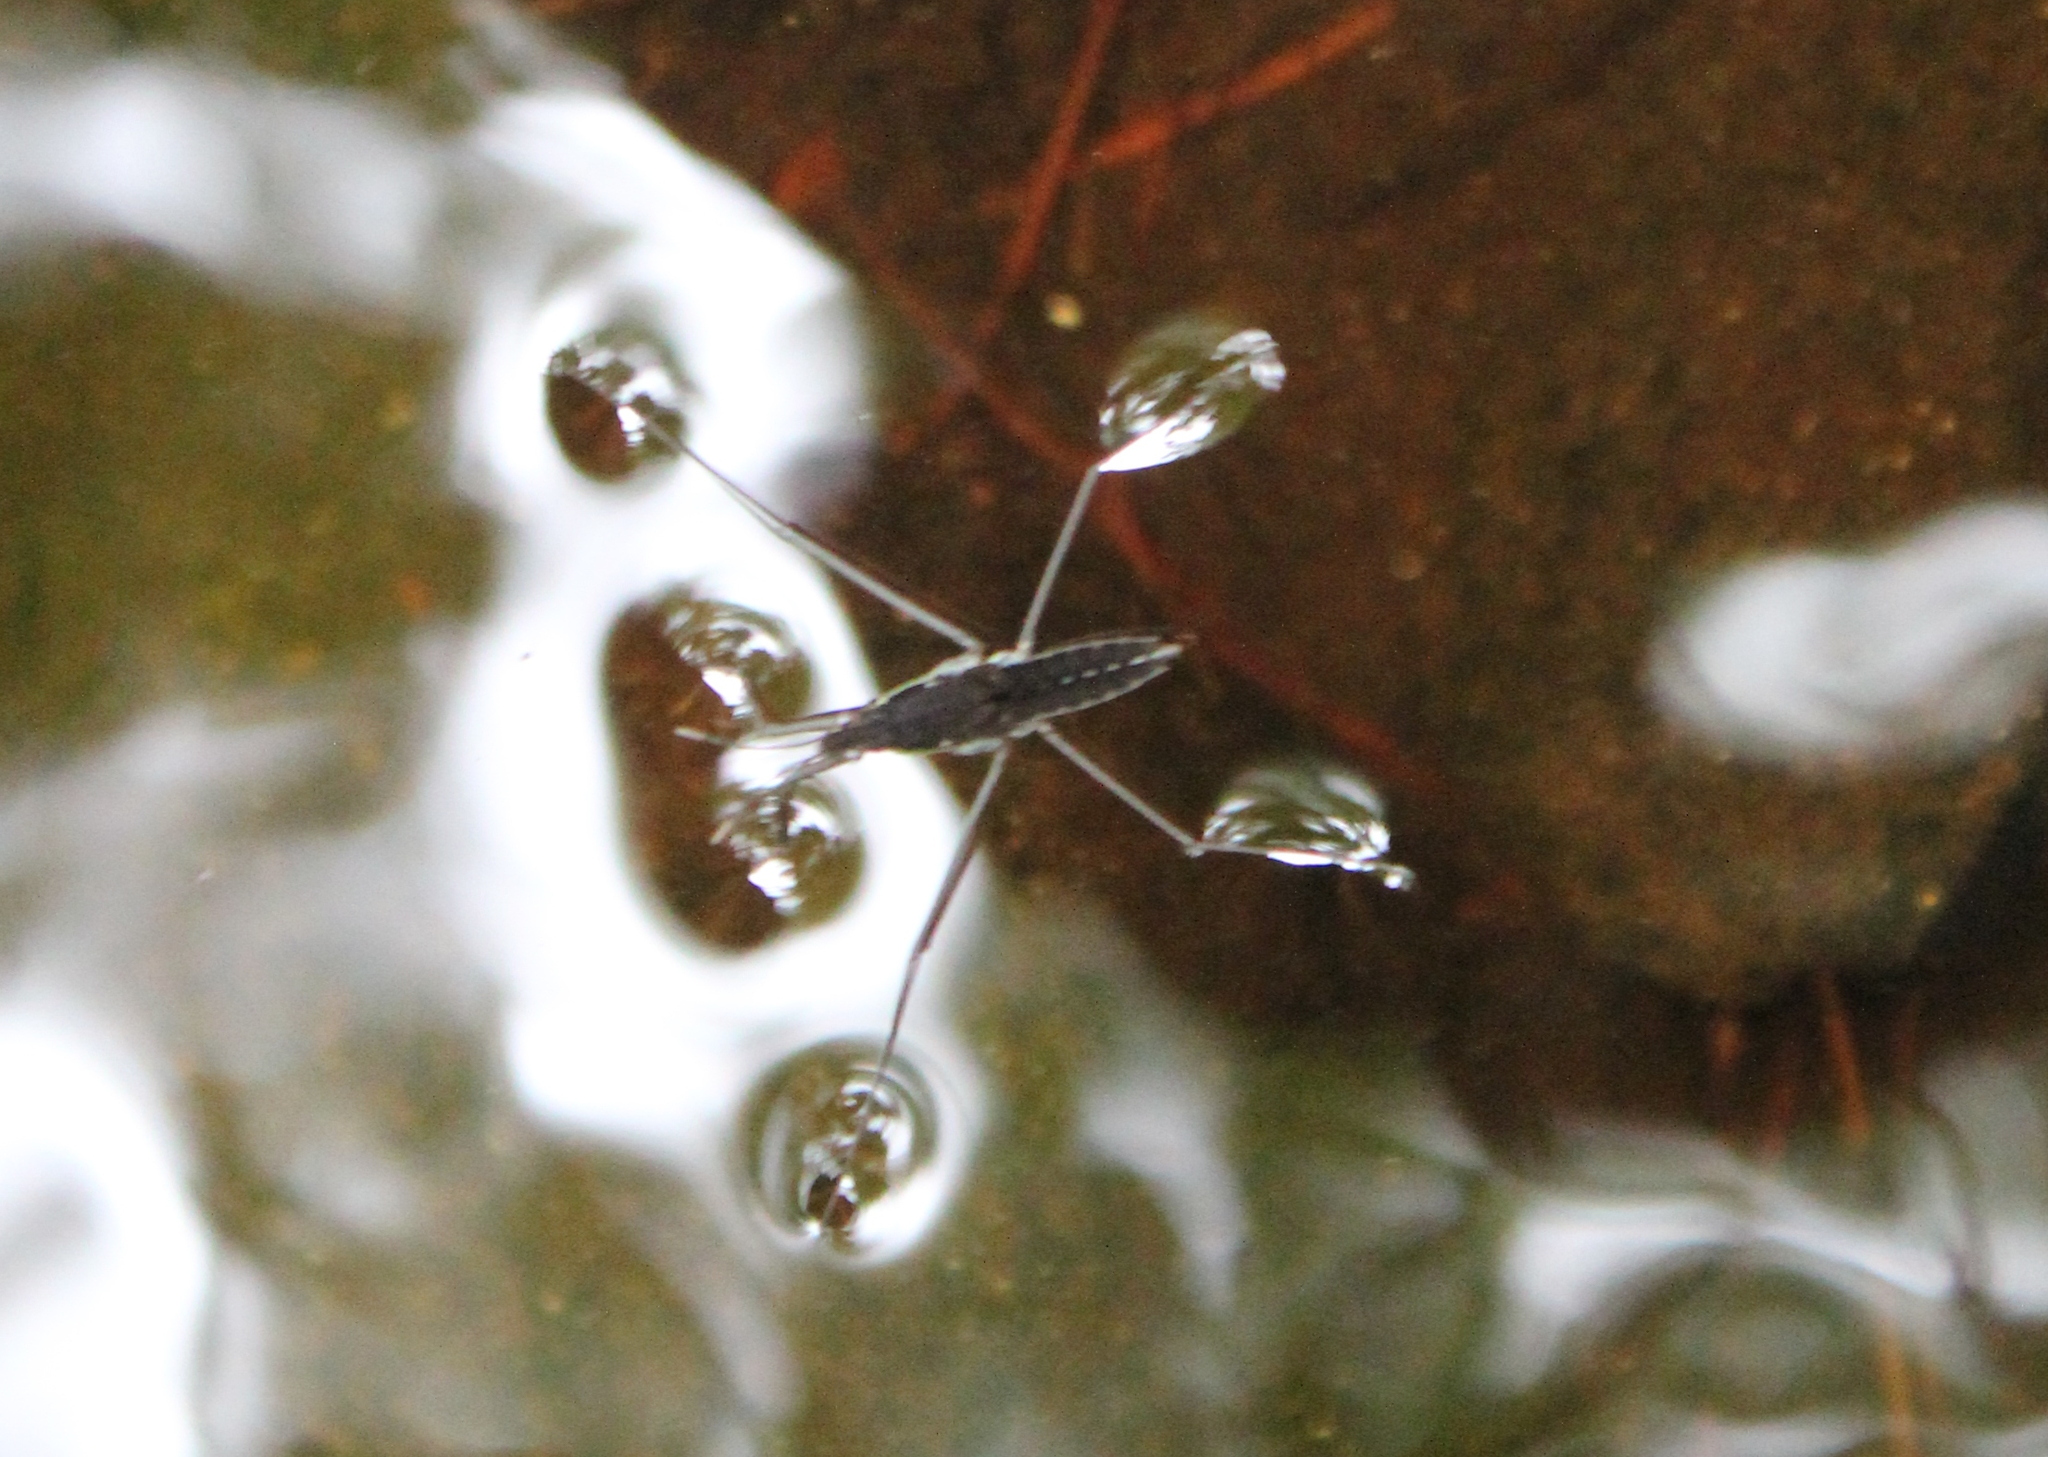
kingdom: Animalia
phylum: Arthropoda
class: Insecta
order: Hemiptera
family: Gerridae
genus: Aquarius
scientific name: Aquarius remigis
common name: Common water strider
